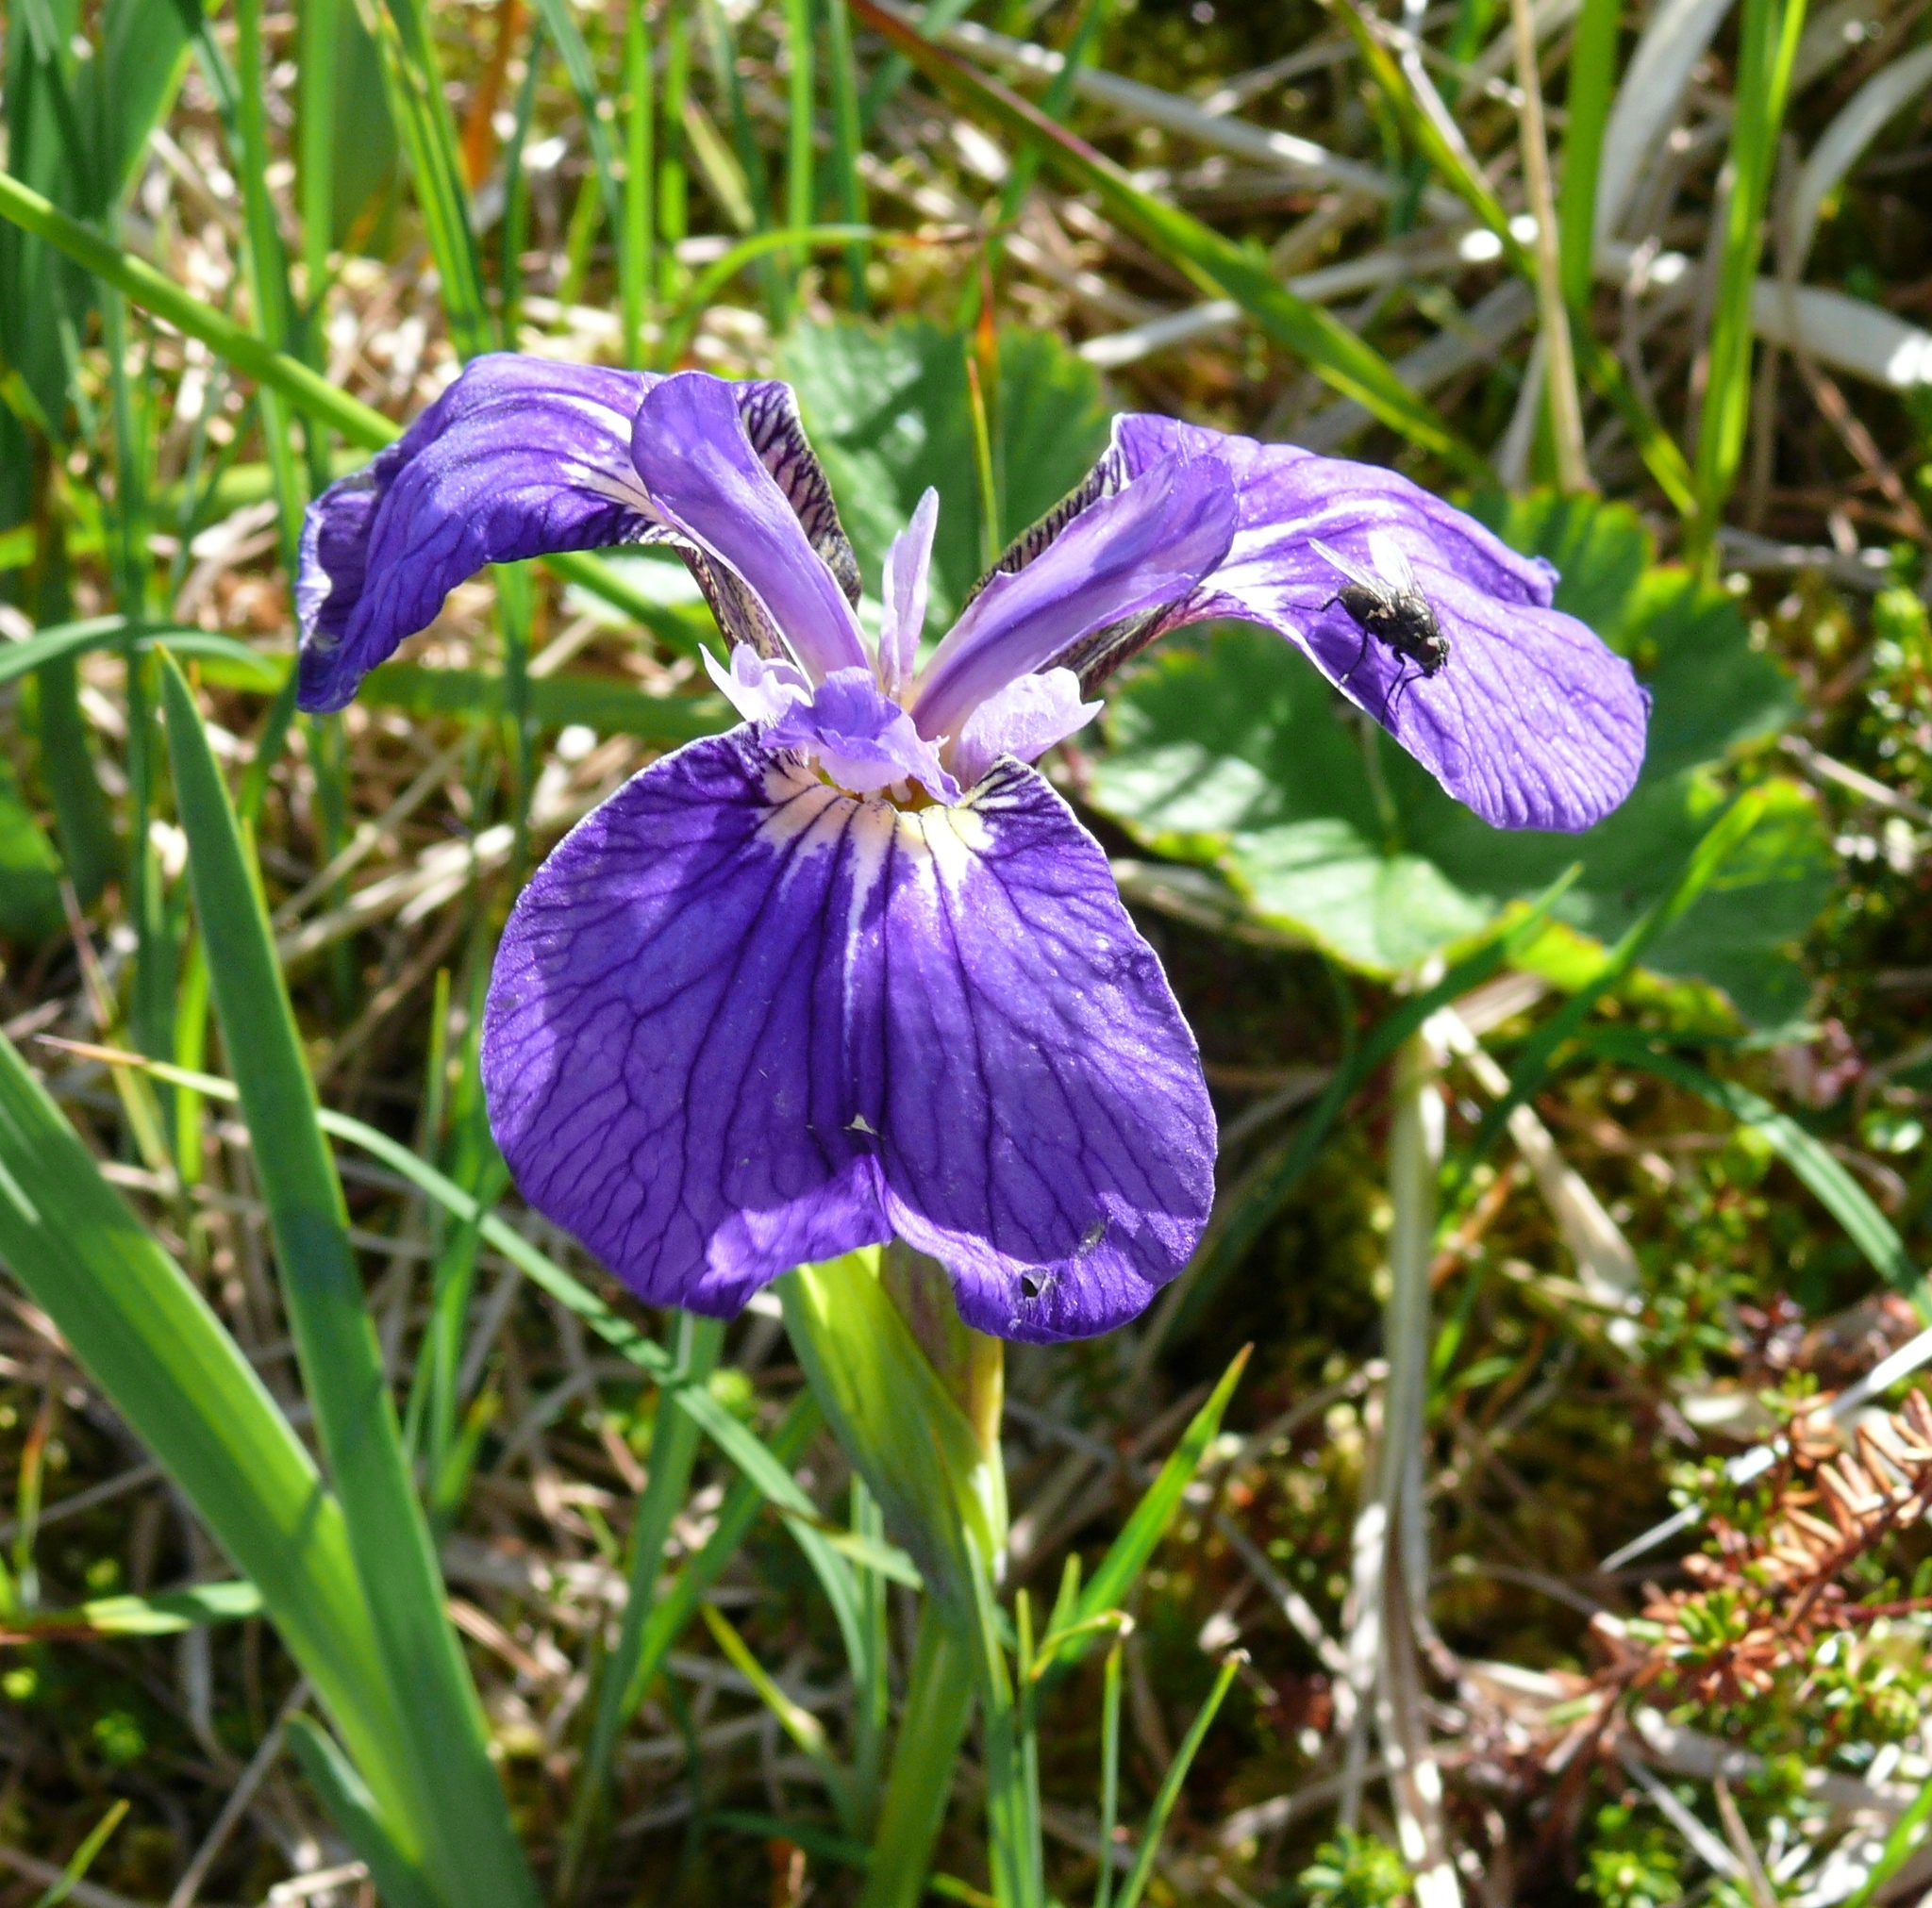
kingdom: Plantae
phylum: Tracheophyta
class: Liliopsida
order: Asparagales
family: Iridaceae
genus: Iris
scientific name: Iris setosa
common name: Arctic blue flag
